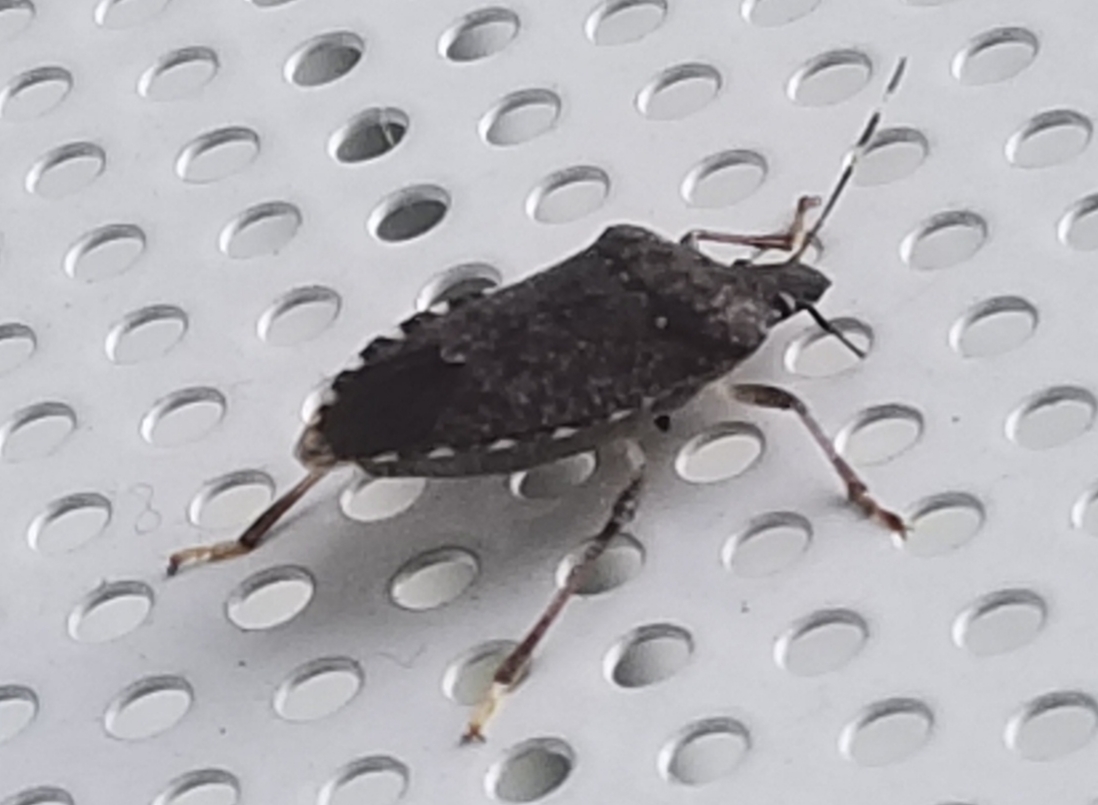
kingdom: Animalia
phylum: Arthropoda
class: Insecta
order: Hemiptera
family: Pentatomidae
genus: Halyomorpha
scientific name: Halyomorpha halys
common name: Brown marmorated stink bug
